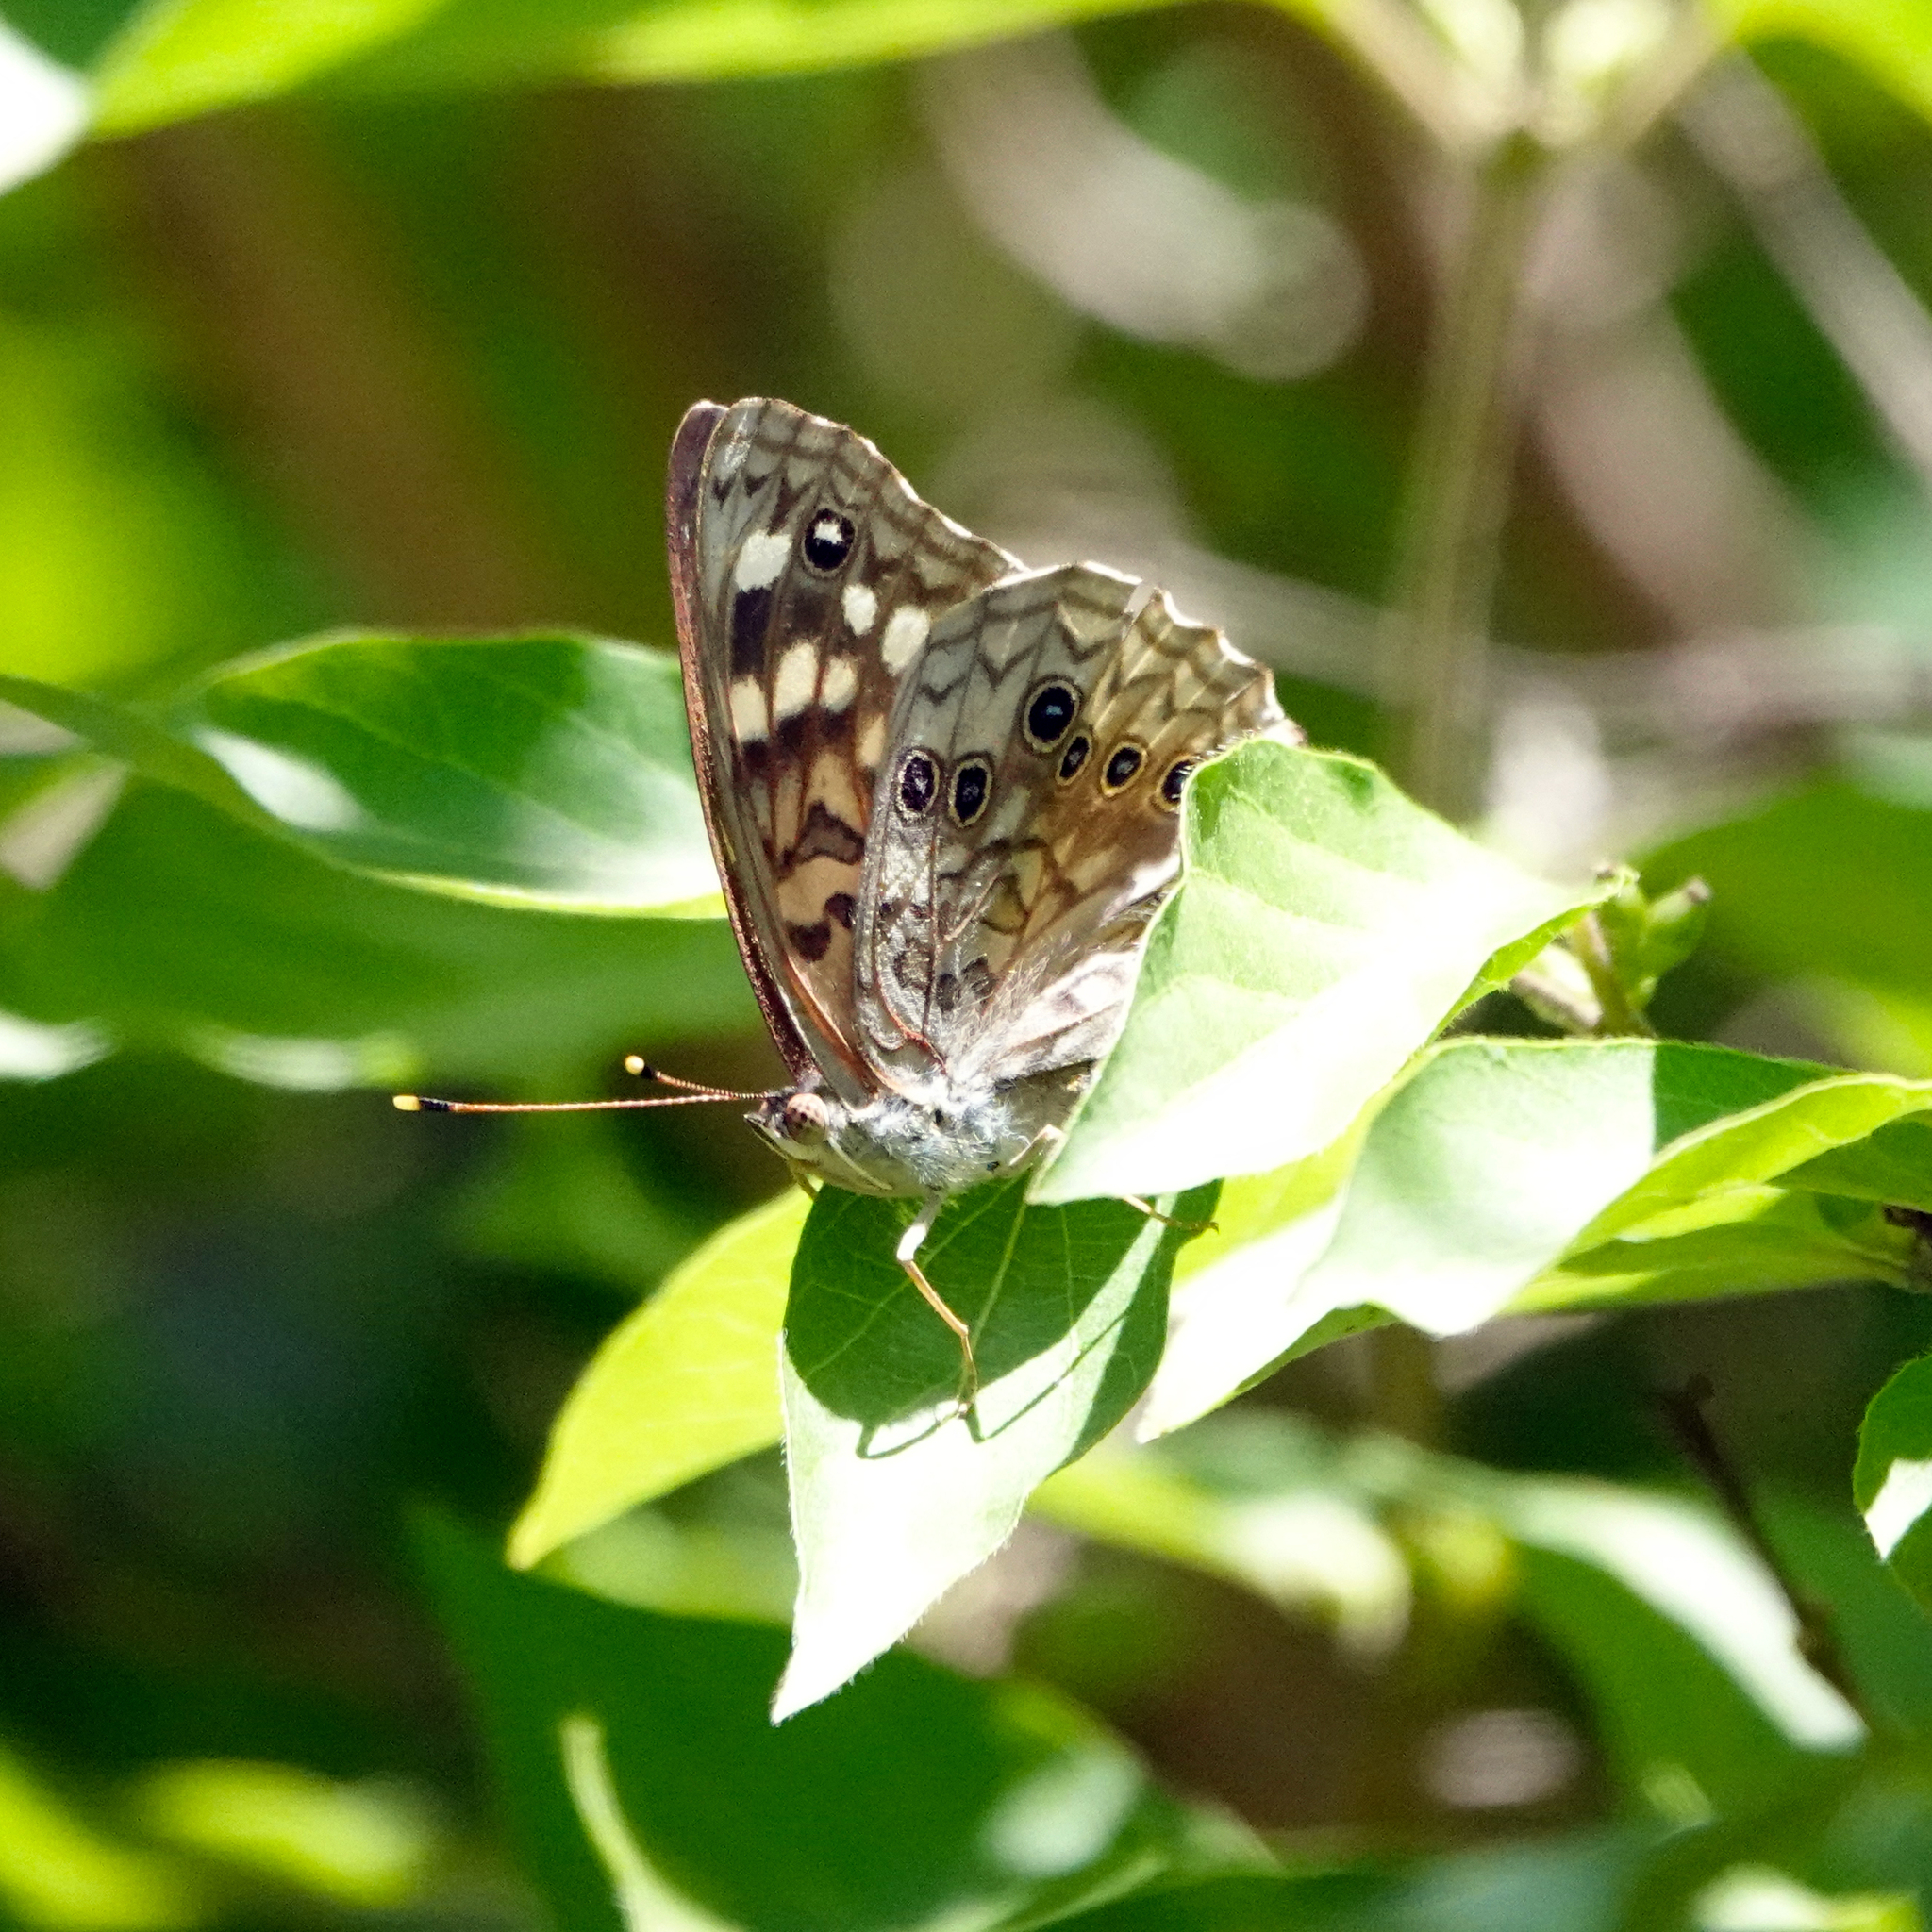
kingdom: Animalia
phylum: Arthropoda
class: Insecta
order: Lepidoptera
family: Nymphalidae
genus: Asterocampa
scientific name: Asterocampa celtis
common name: Hackberry emperor
